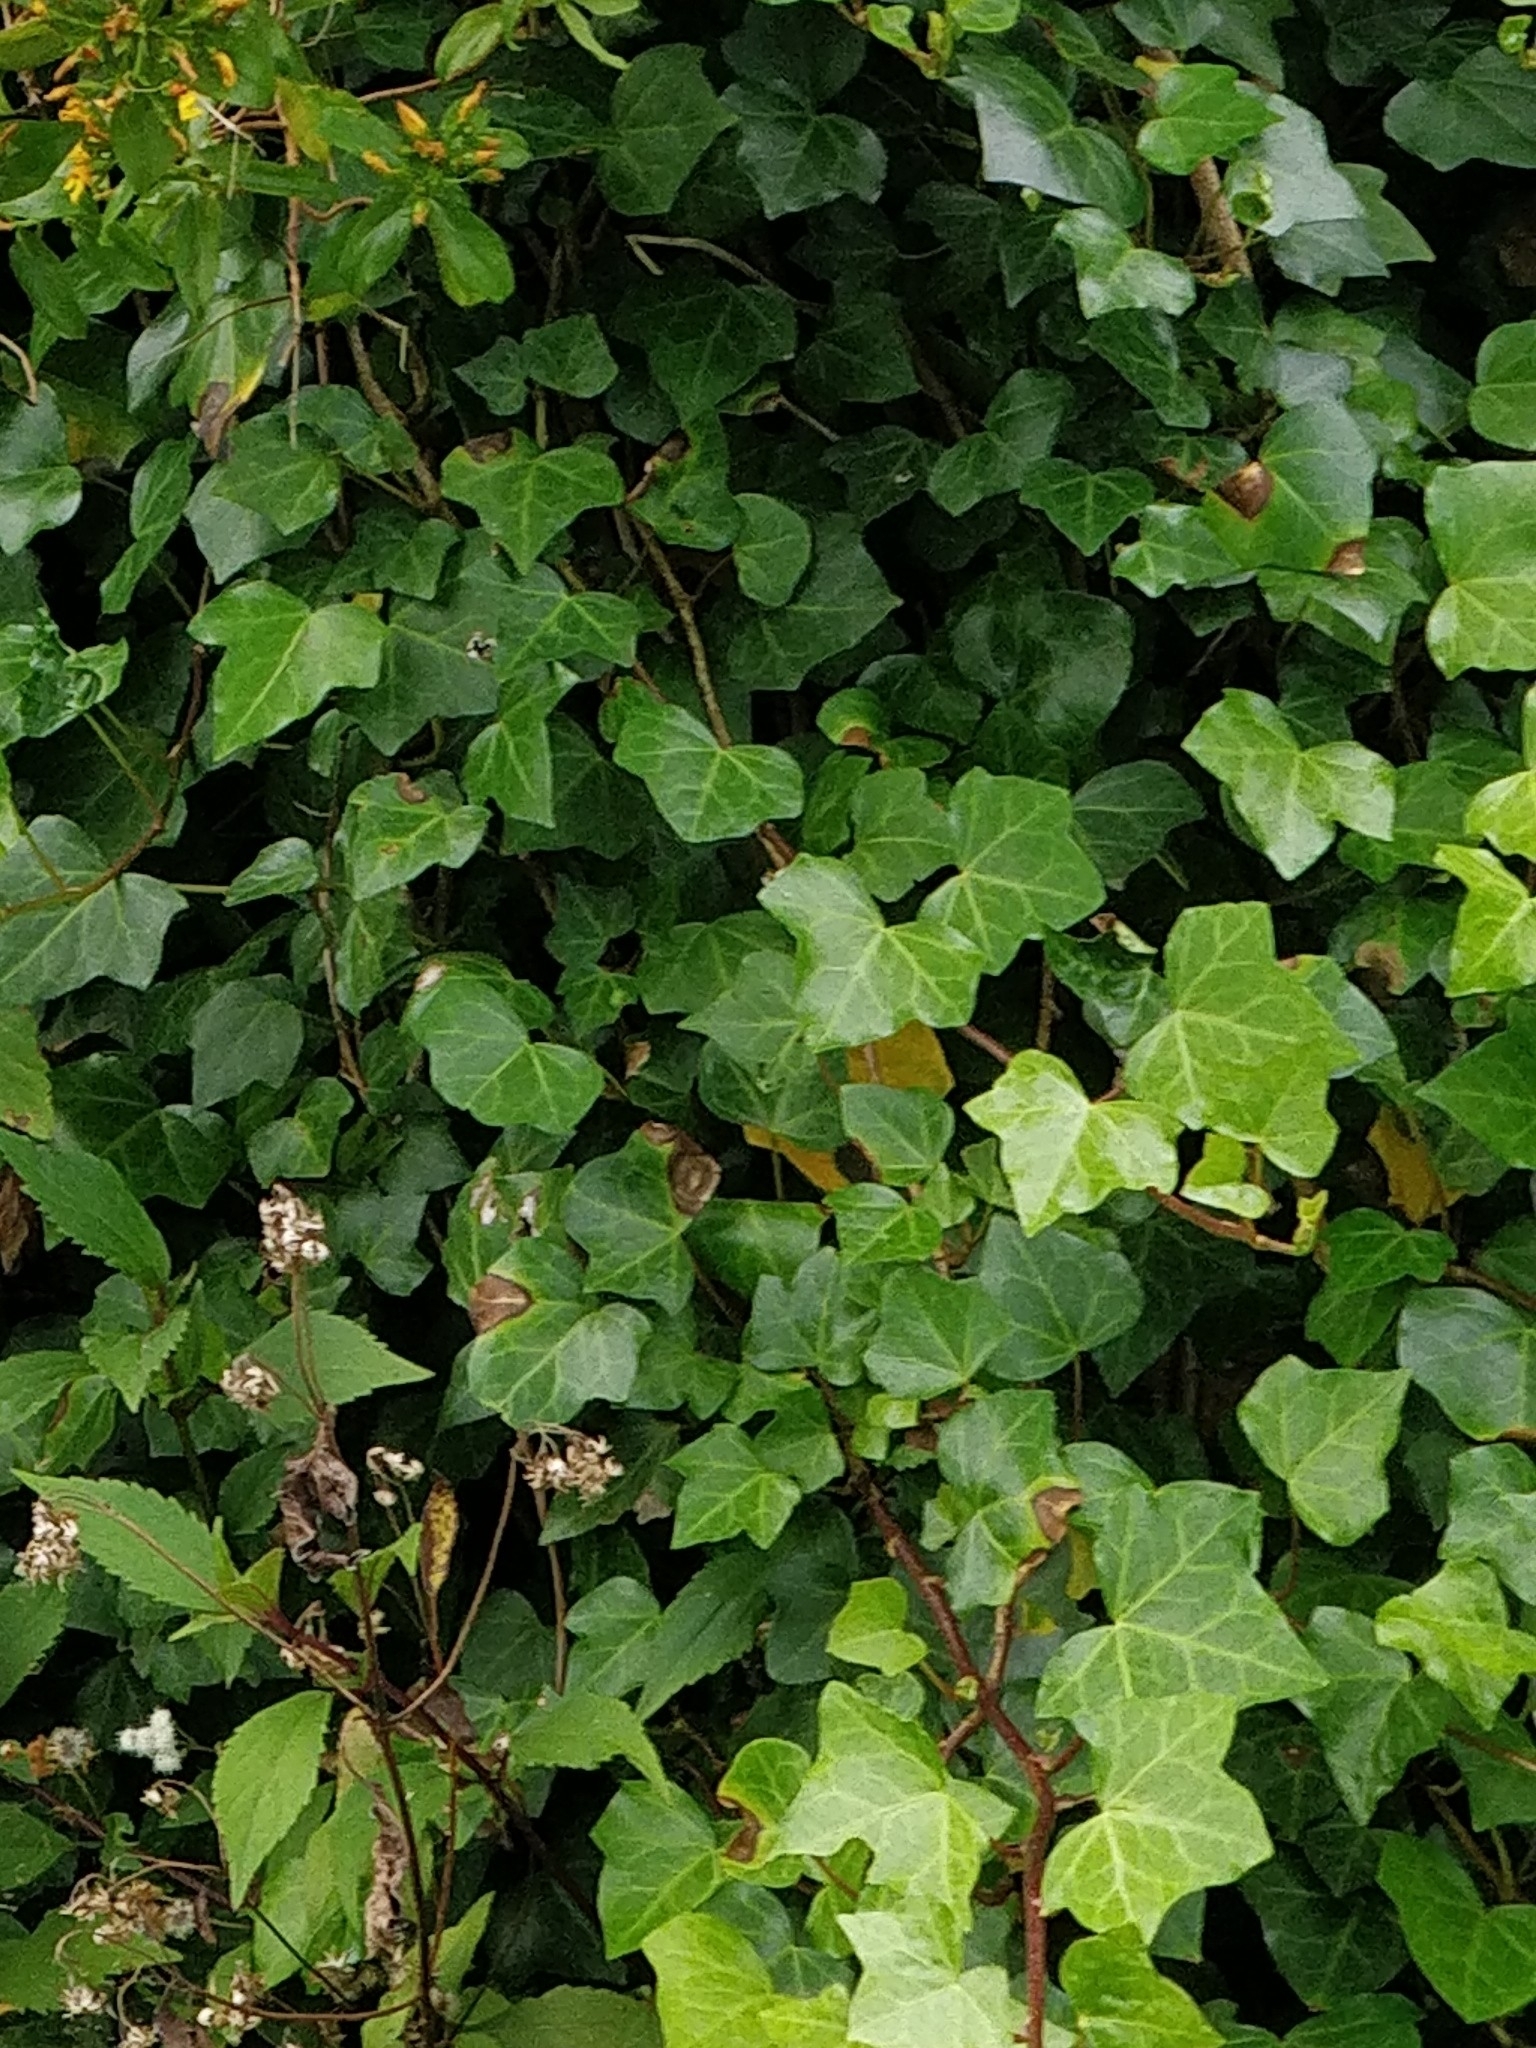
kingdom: Plantae
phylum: Tracheophyta
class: Magnoliopsida
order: Apiales
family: Araliaceae
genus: Hedera
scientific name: Hedera maderensis
